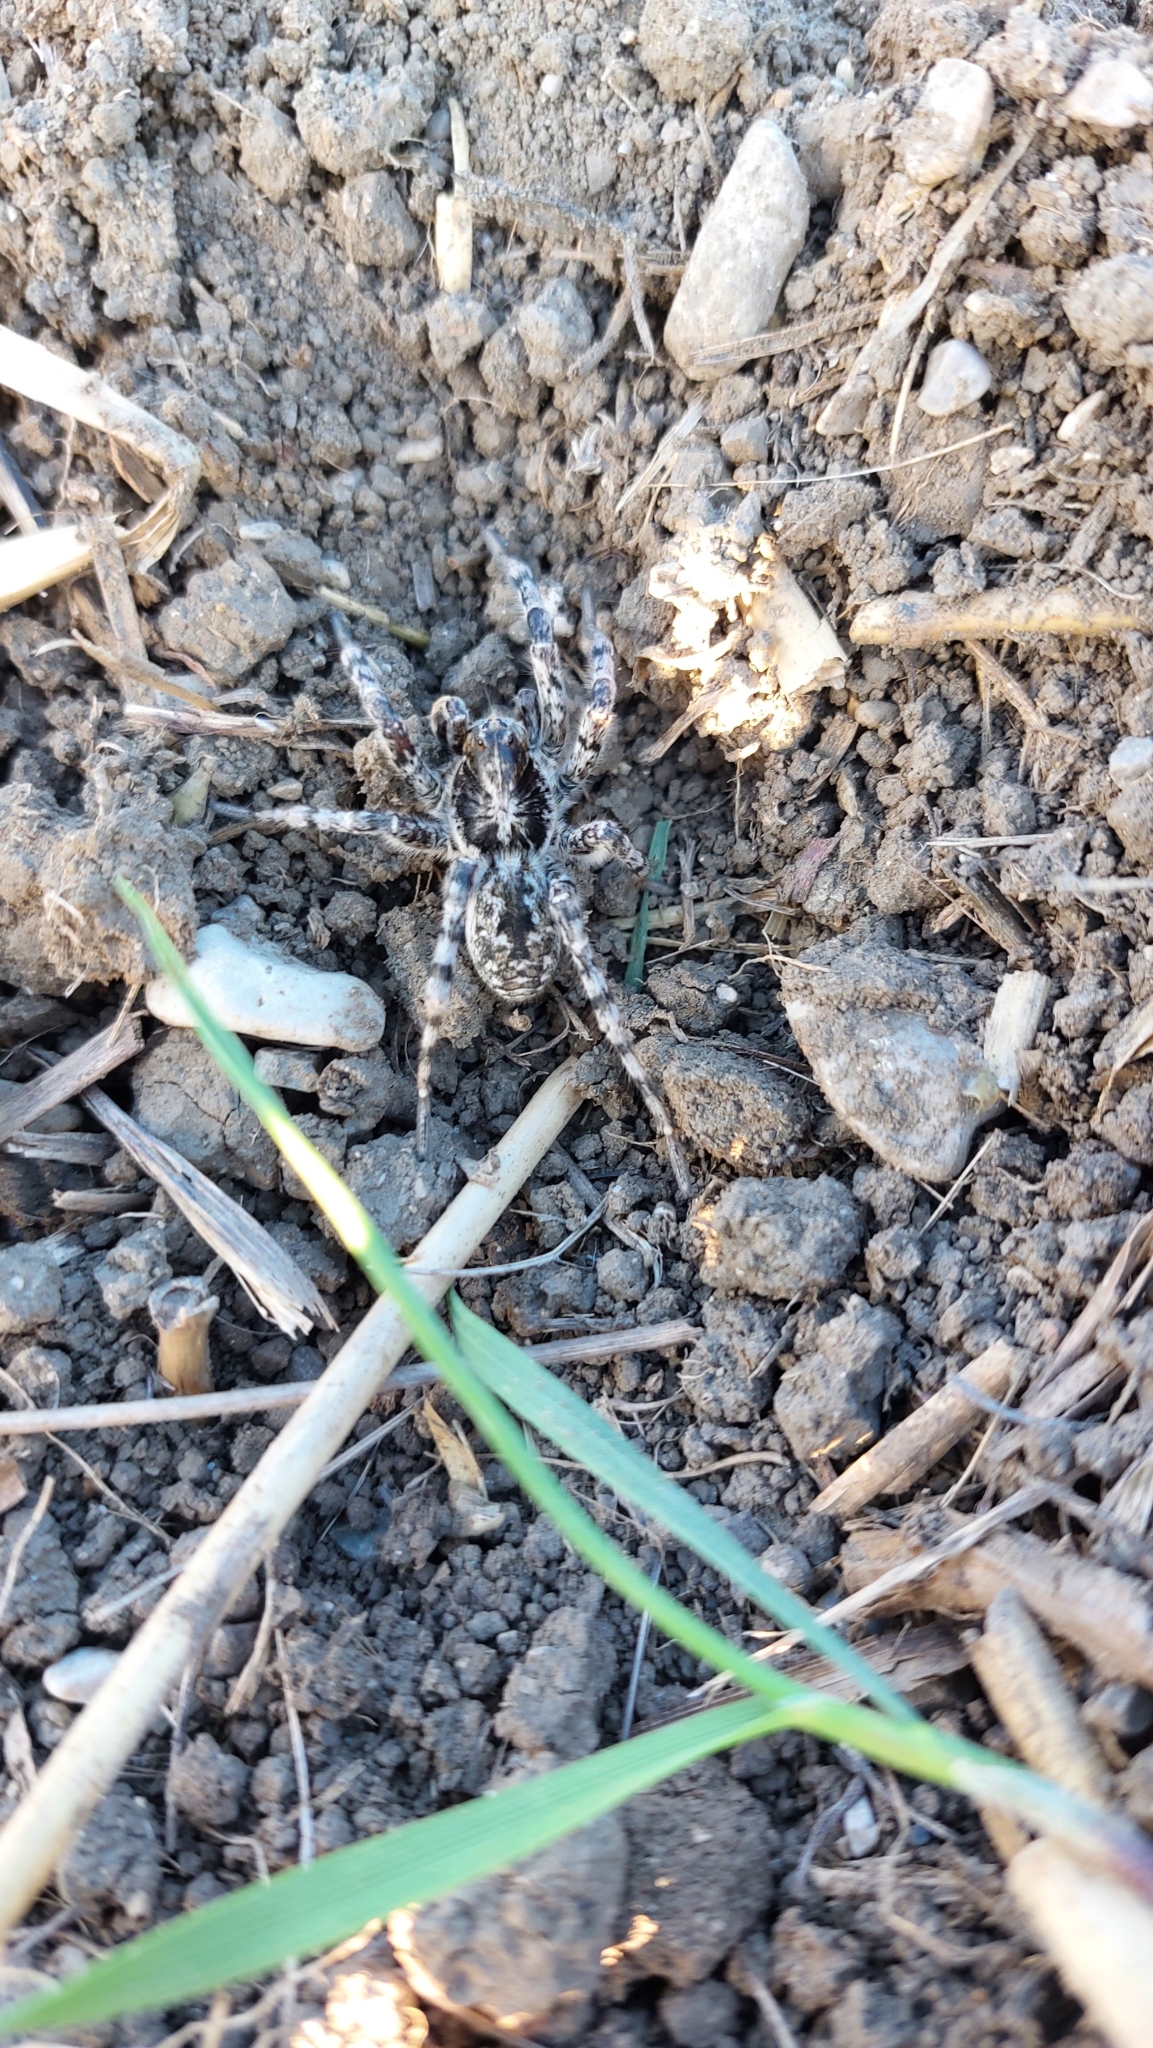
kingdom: Animalia
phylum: Arthropoda
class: Arachnida
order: Araneae
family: Lycosidae
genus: Lycosa
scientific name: Lycosa singoriensis
